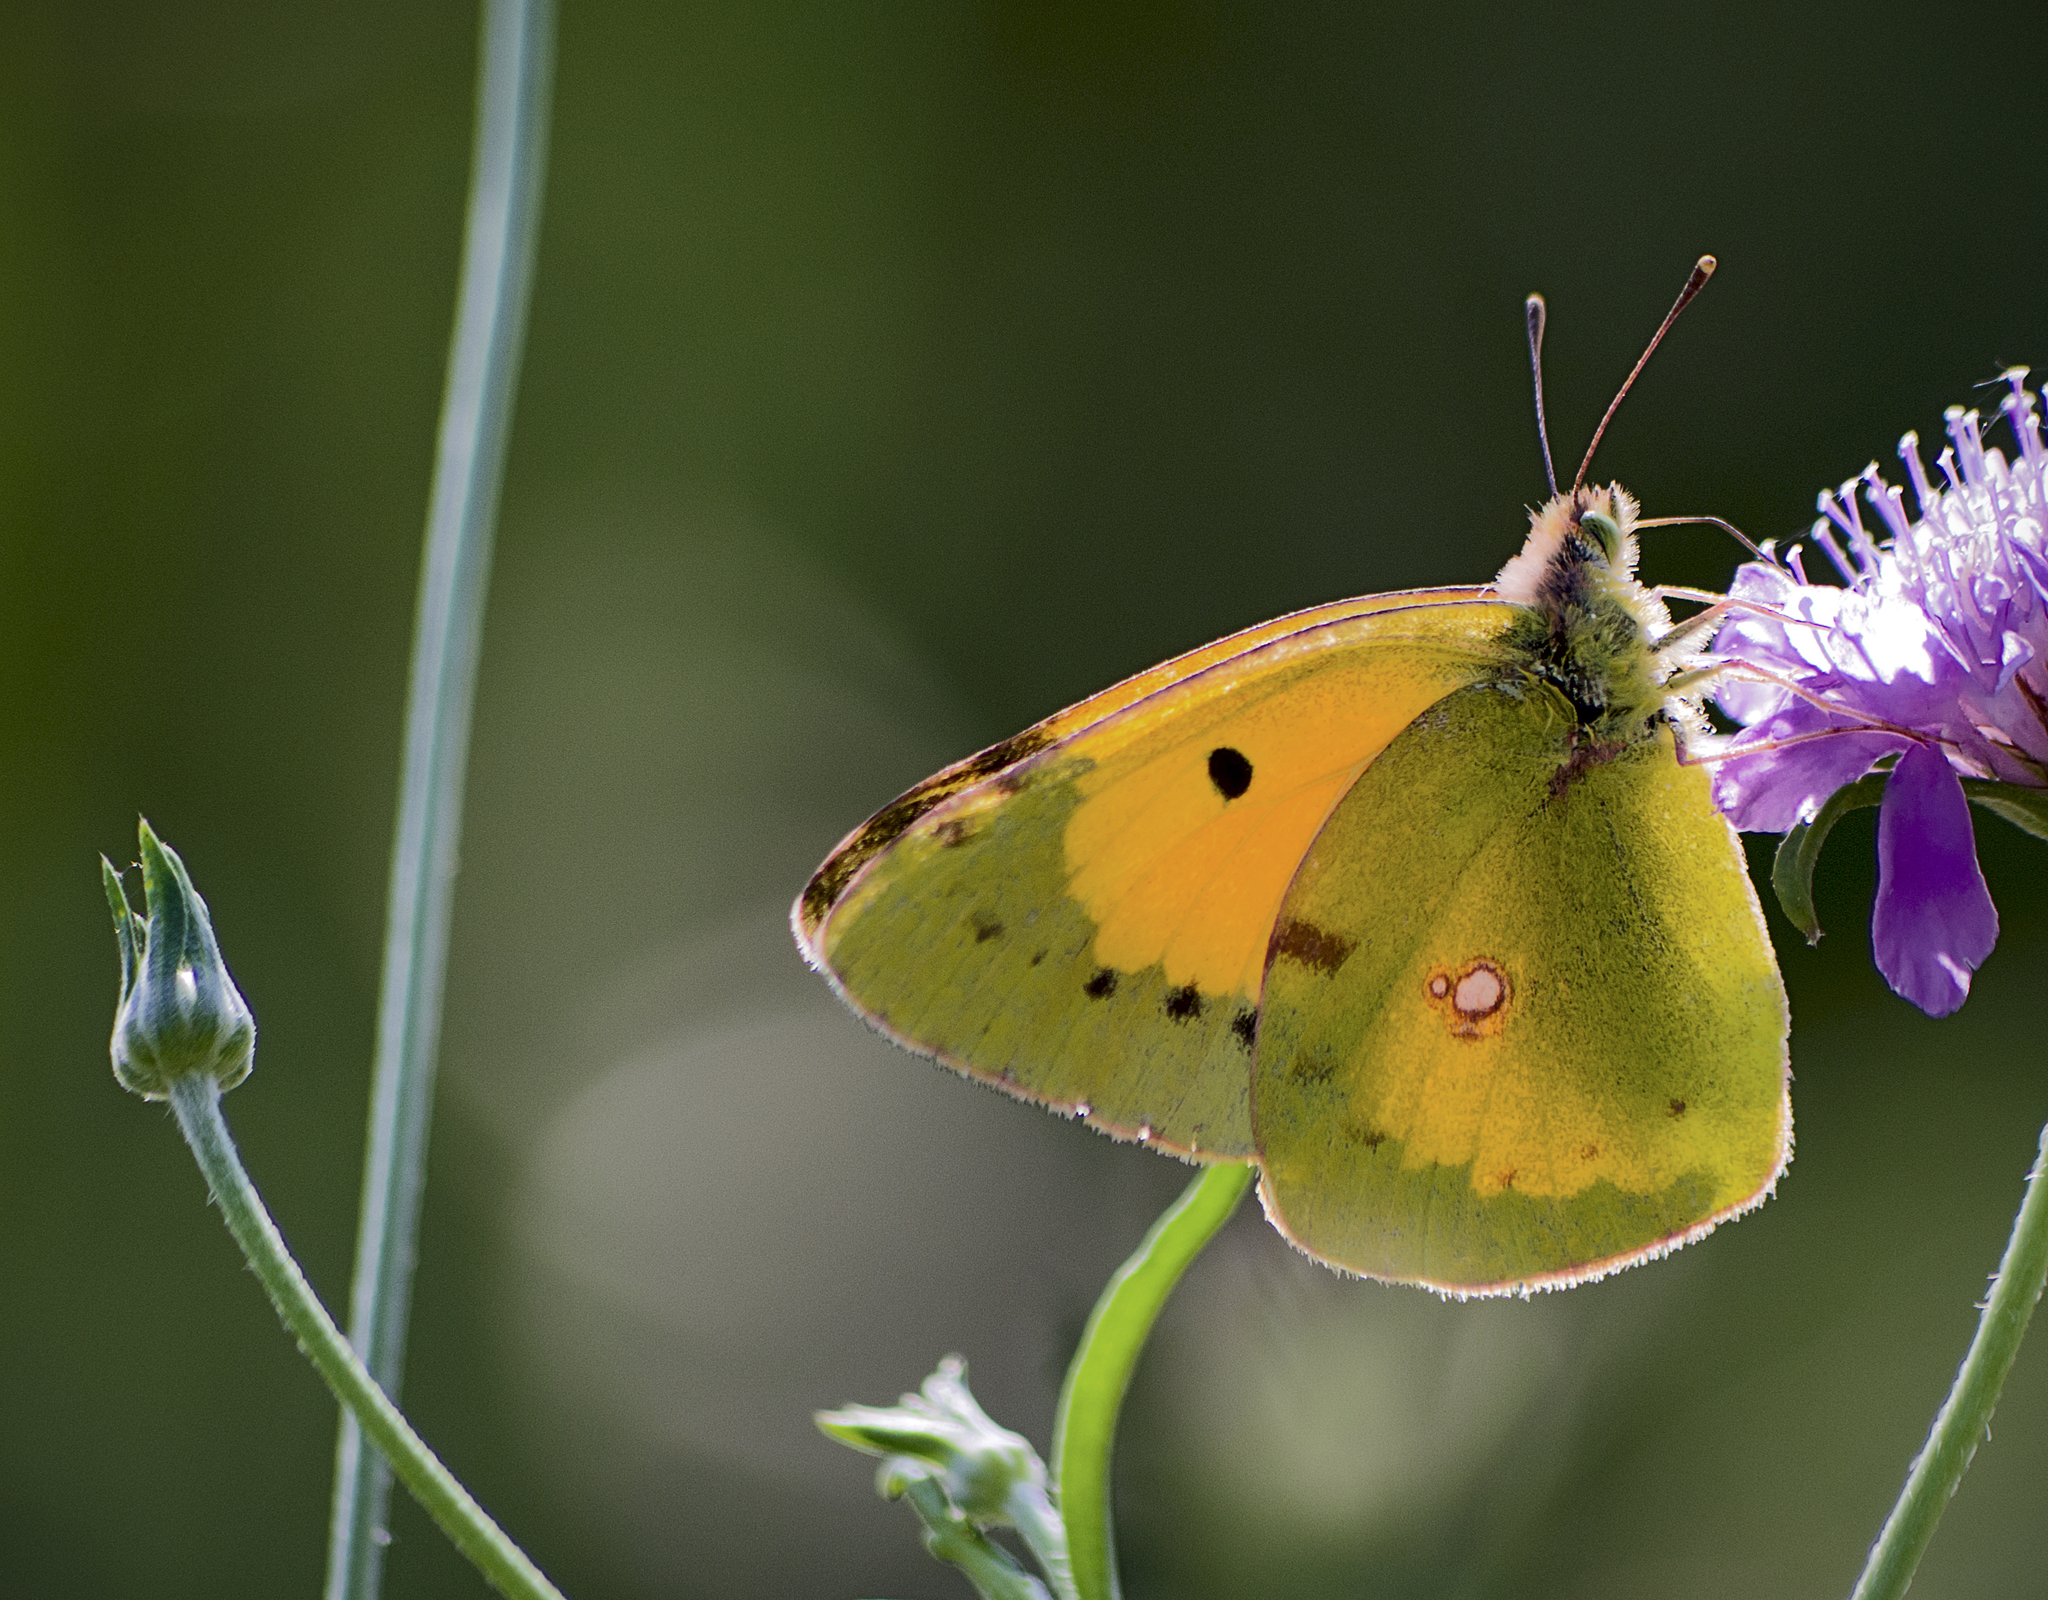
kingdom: Animalia
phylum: Arthropoda
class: Insecta
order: Lepidoptera
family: Pieridae
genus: Colias
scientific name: Colias croceus
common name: Clouded yellow
